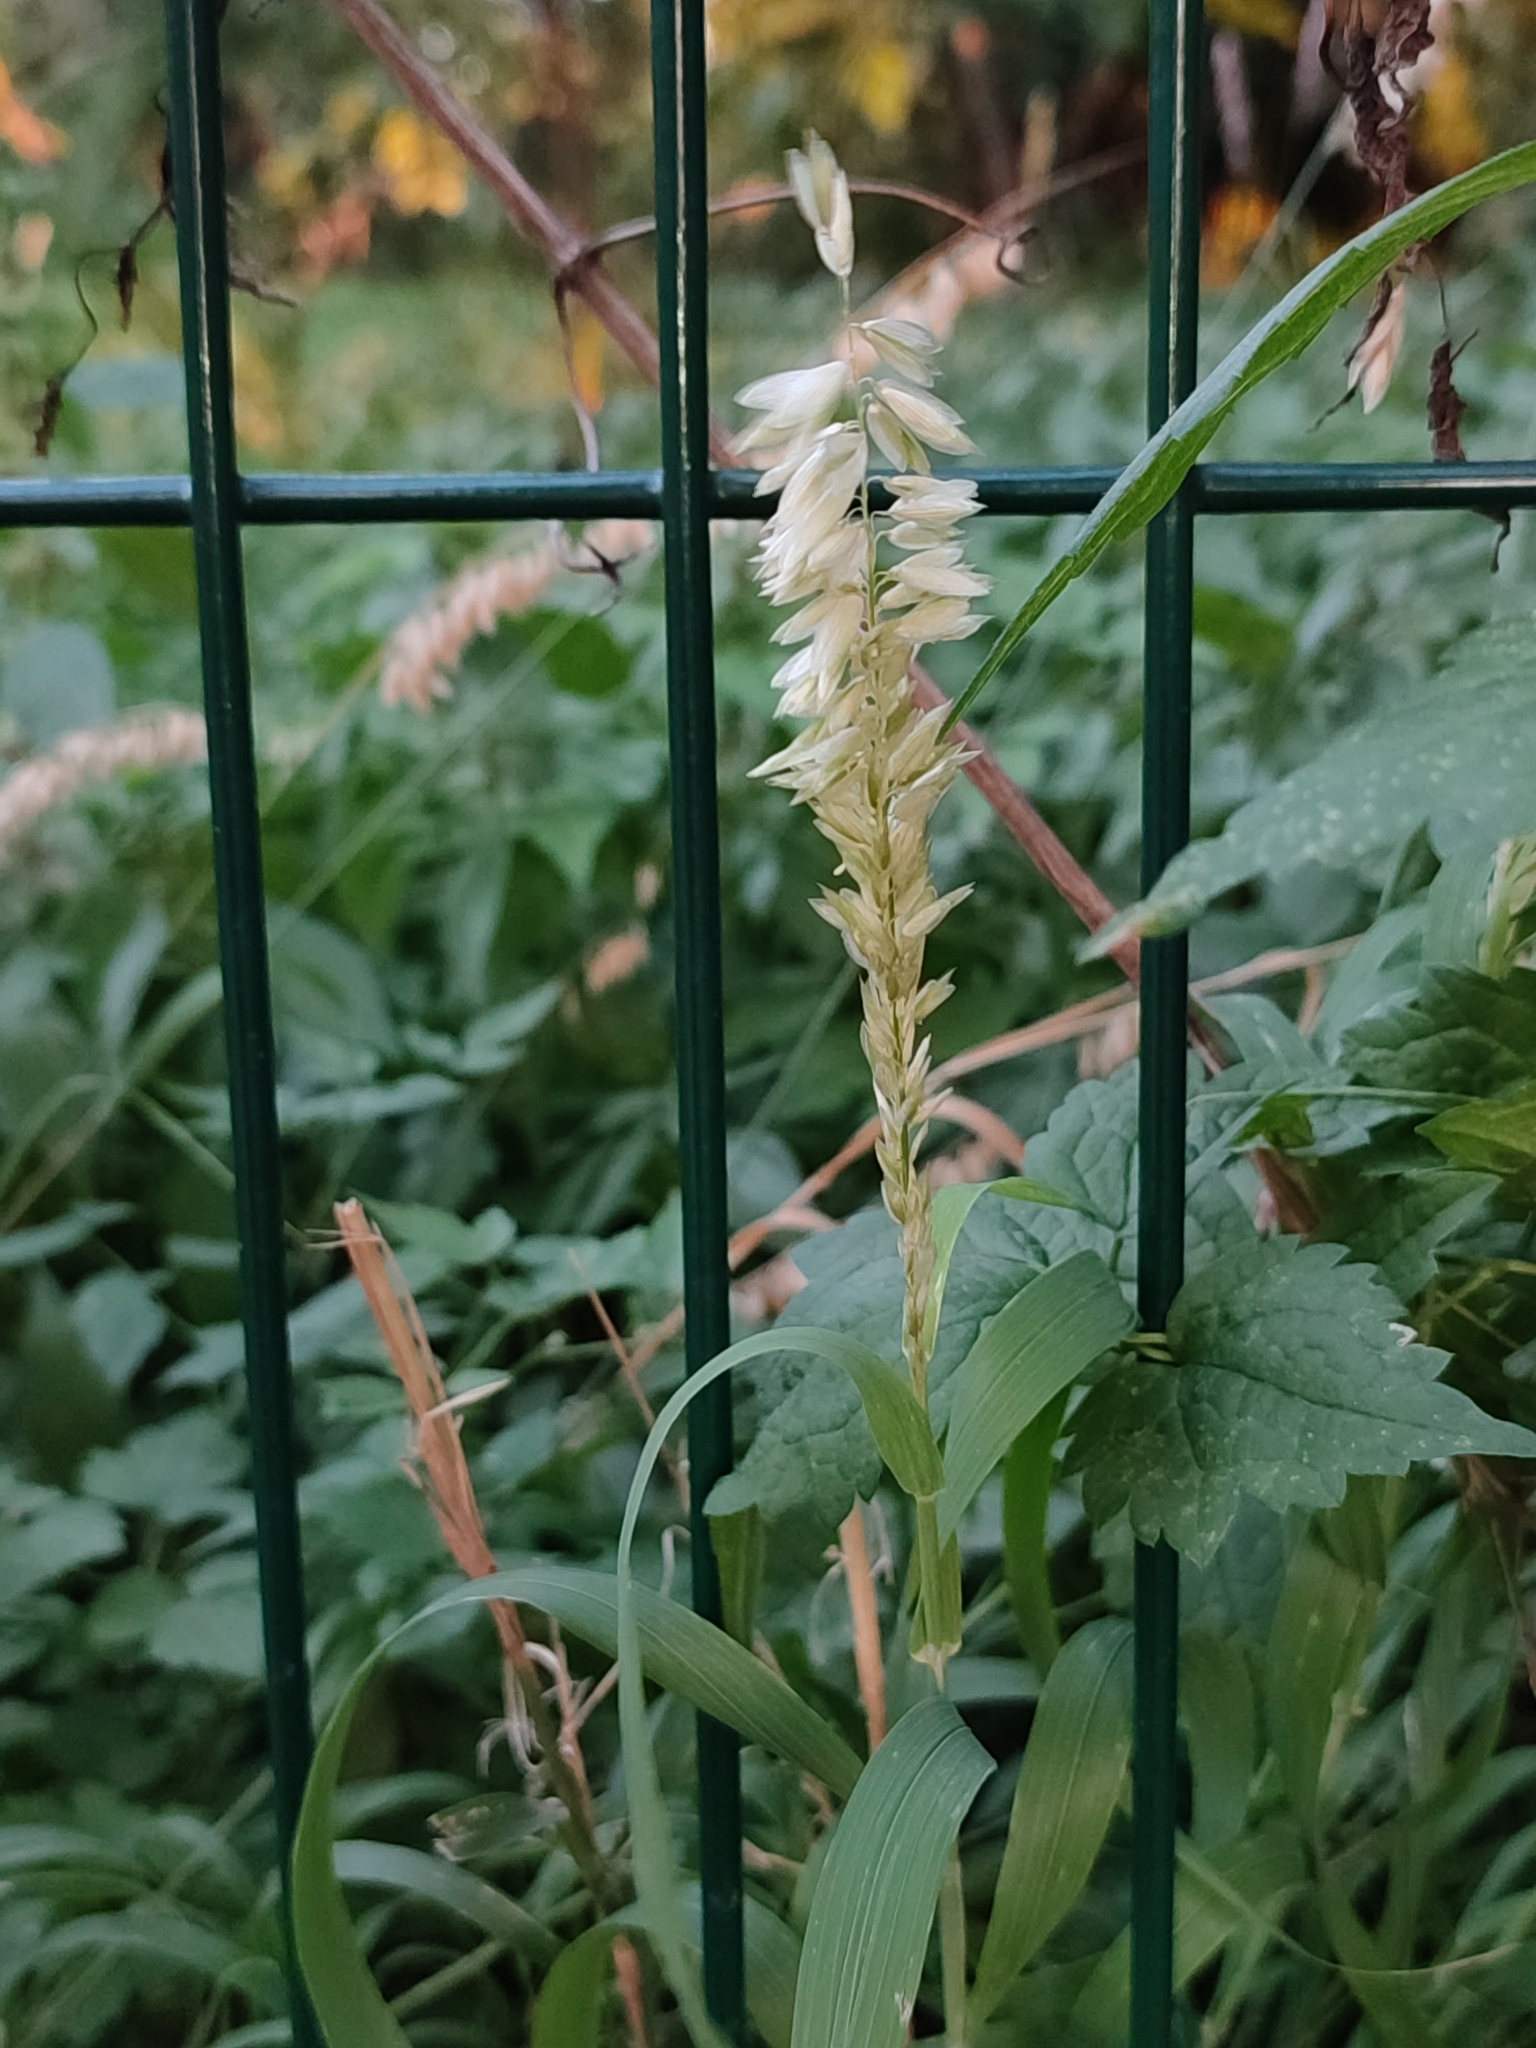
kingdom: Plantae
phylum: Tracheophyta
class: Liliopsida
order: Poales
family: Poaceae
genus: Melica
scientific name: Melica altissima
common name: Siberian melicgrass
